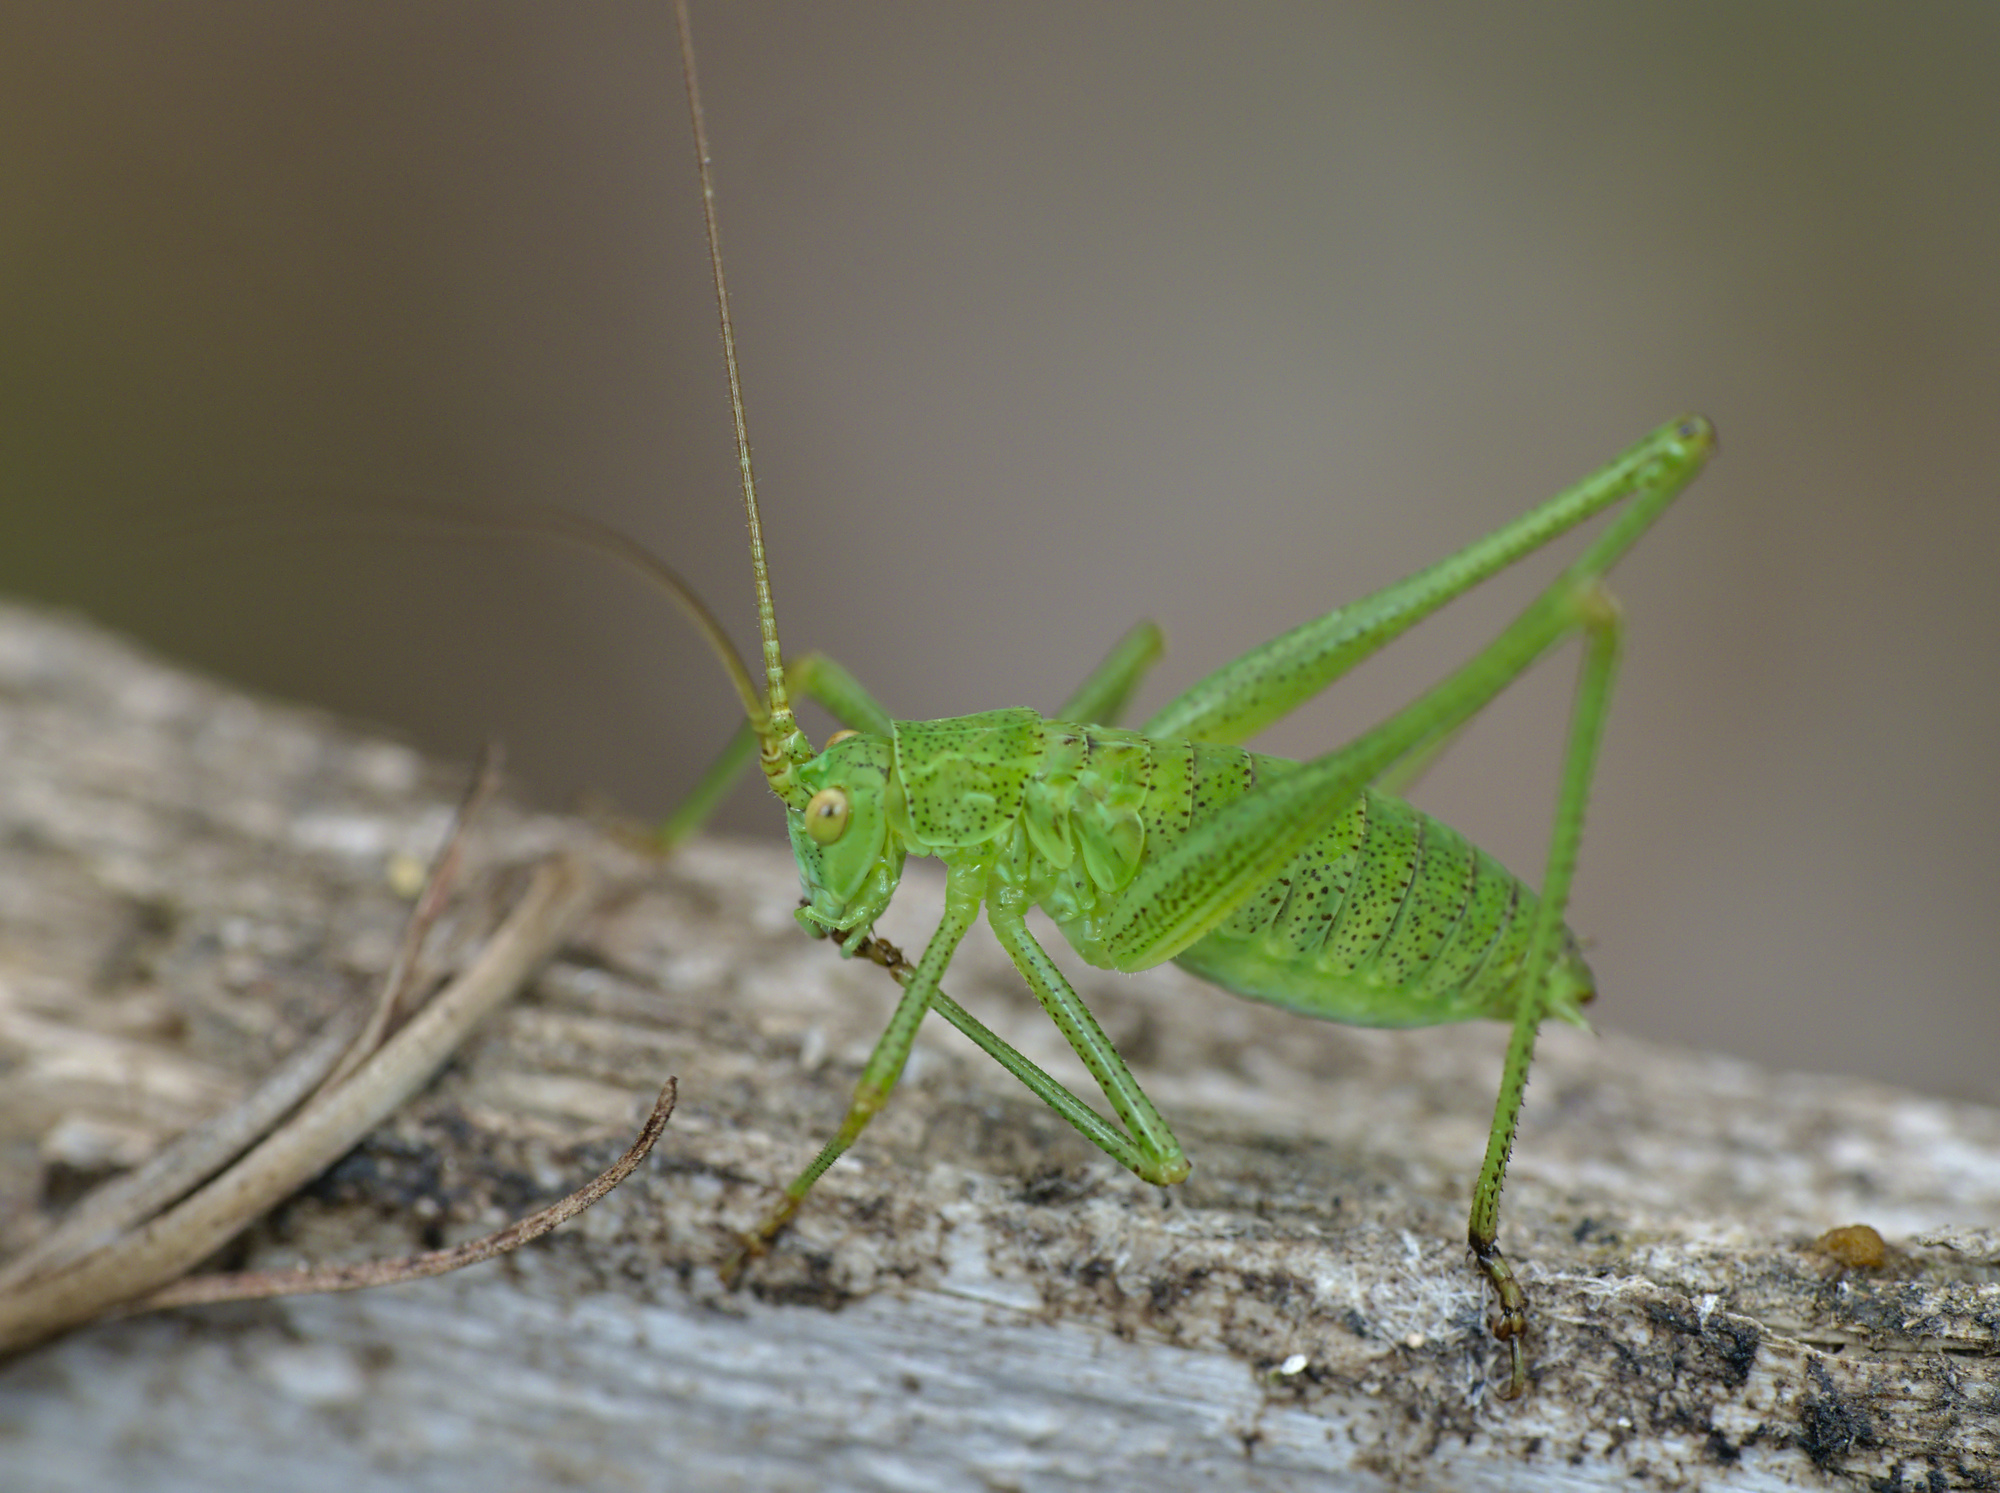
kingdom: Animalia
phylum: Arthropoda
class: Insecta
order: Orthoptera
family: Tettigoniidae
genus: Phaneroptera
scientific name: Phaneroptera falcata
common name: Sickle-bearing bush-cricket
